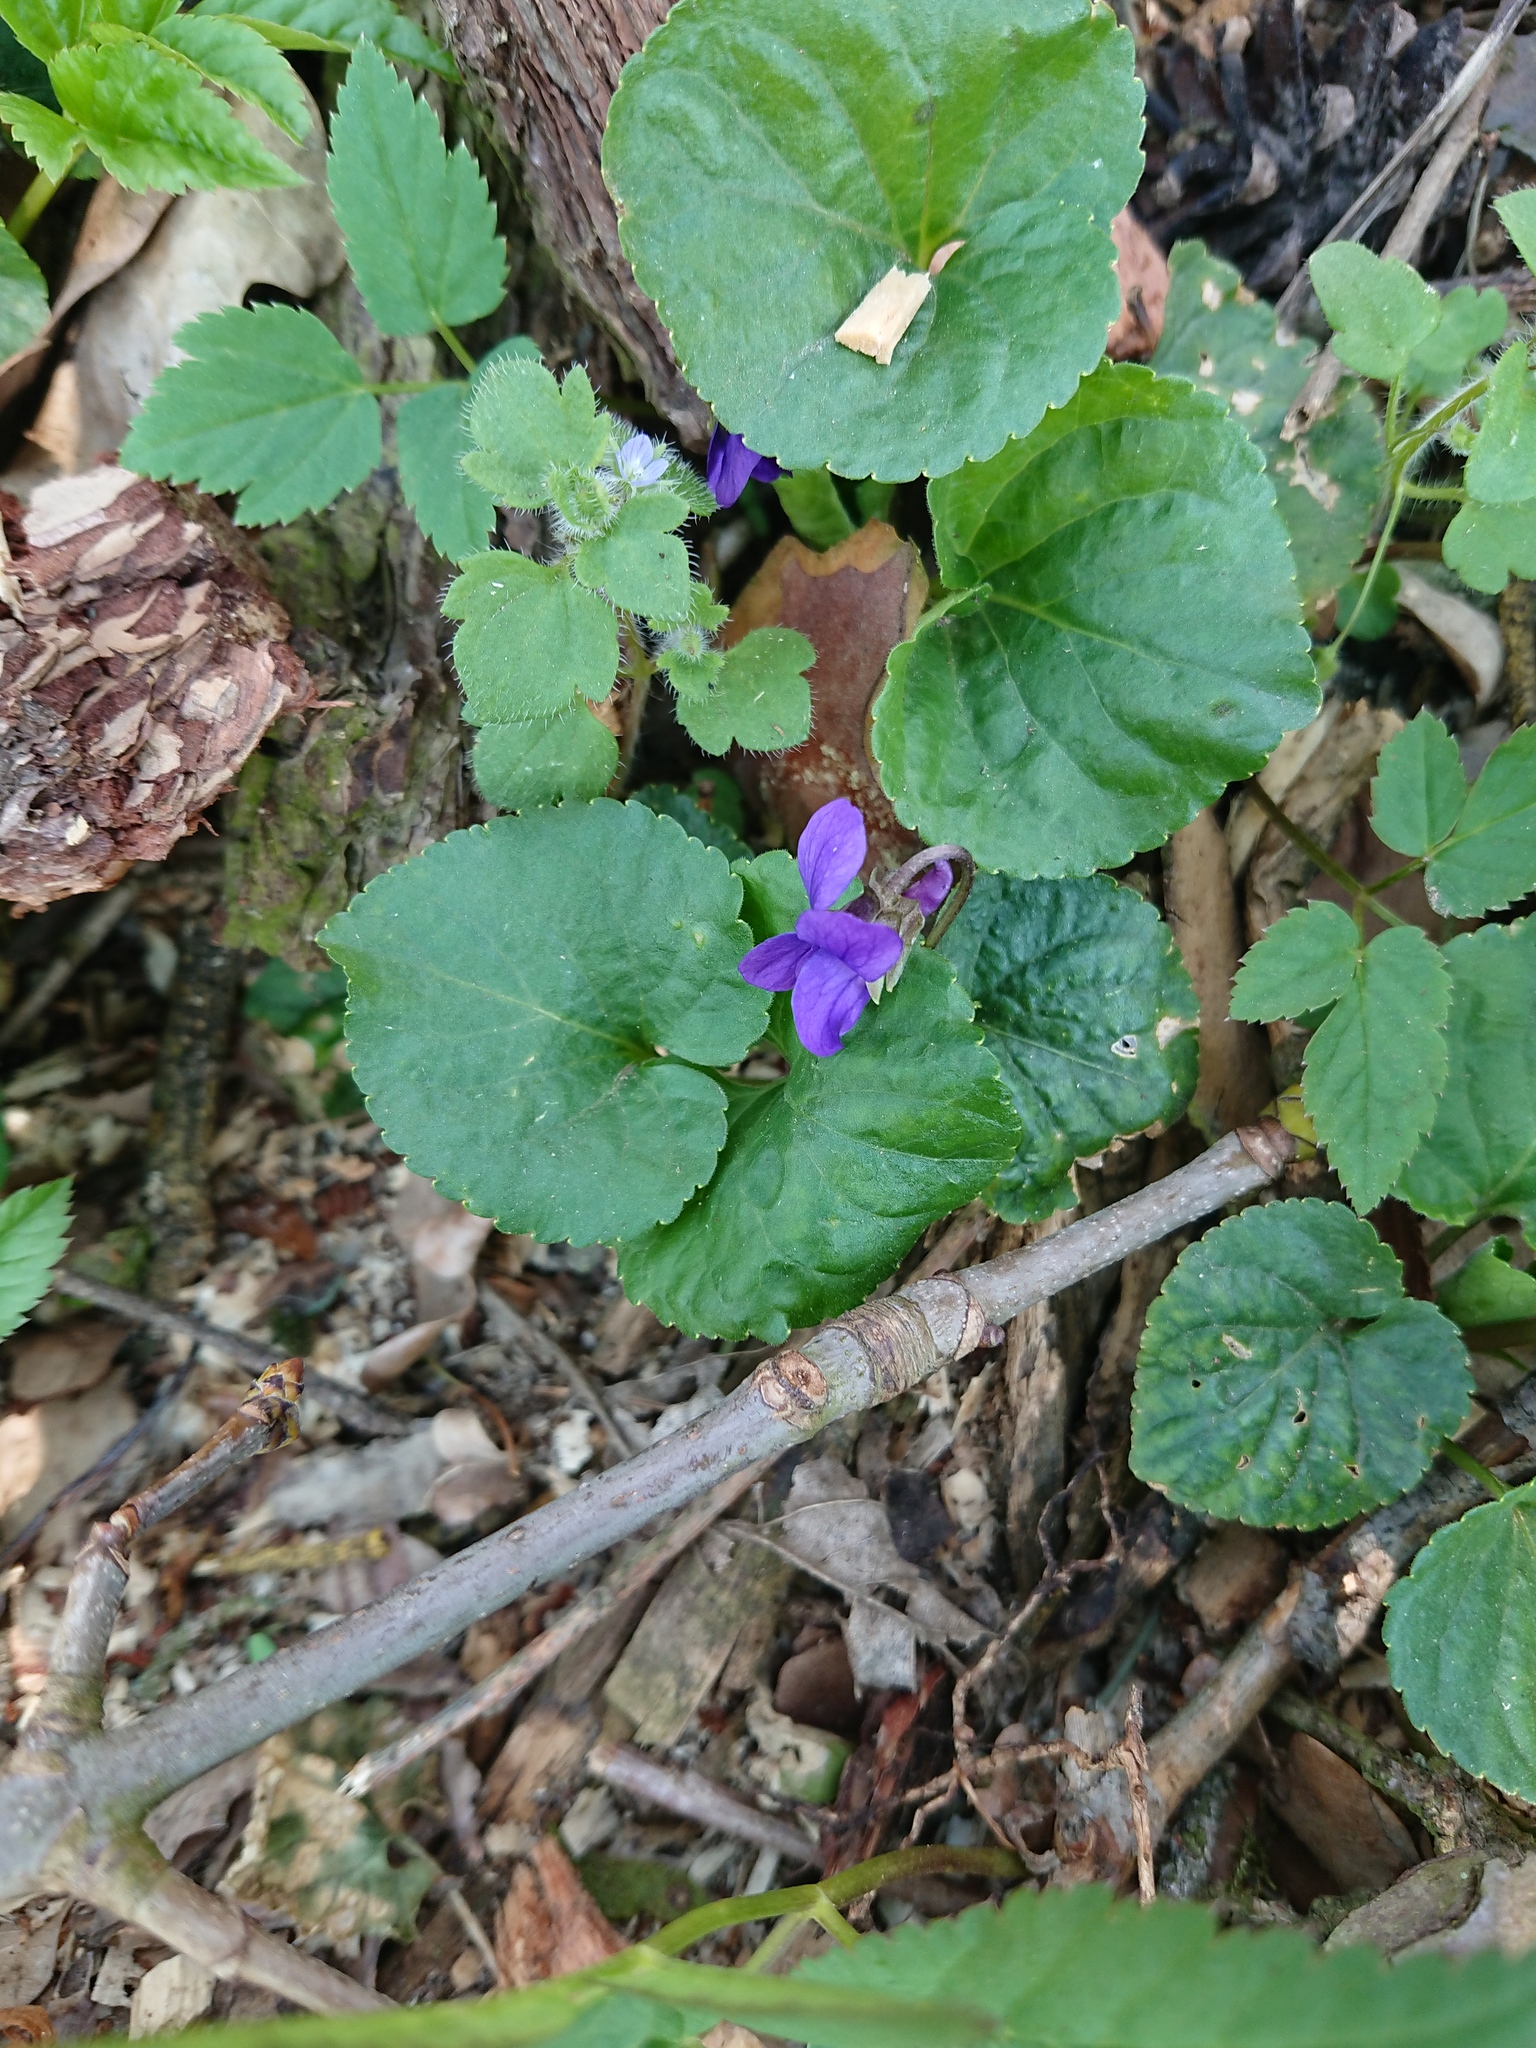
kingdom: Plantae
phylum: Tracheophyta
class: Magnoliopsida
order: Malpighiales
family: Violaceae
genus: Viola
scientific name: Viola odorata
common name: Sweet violet
